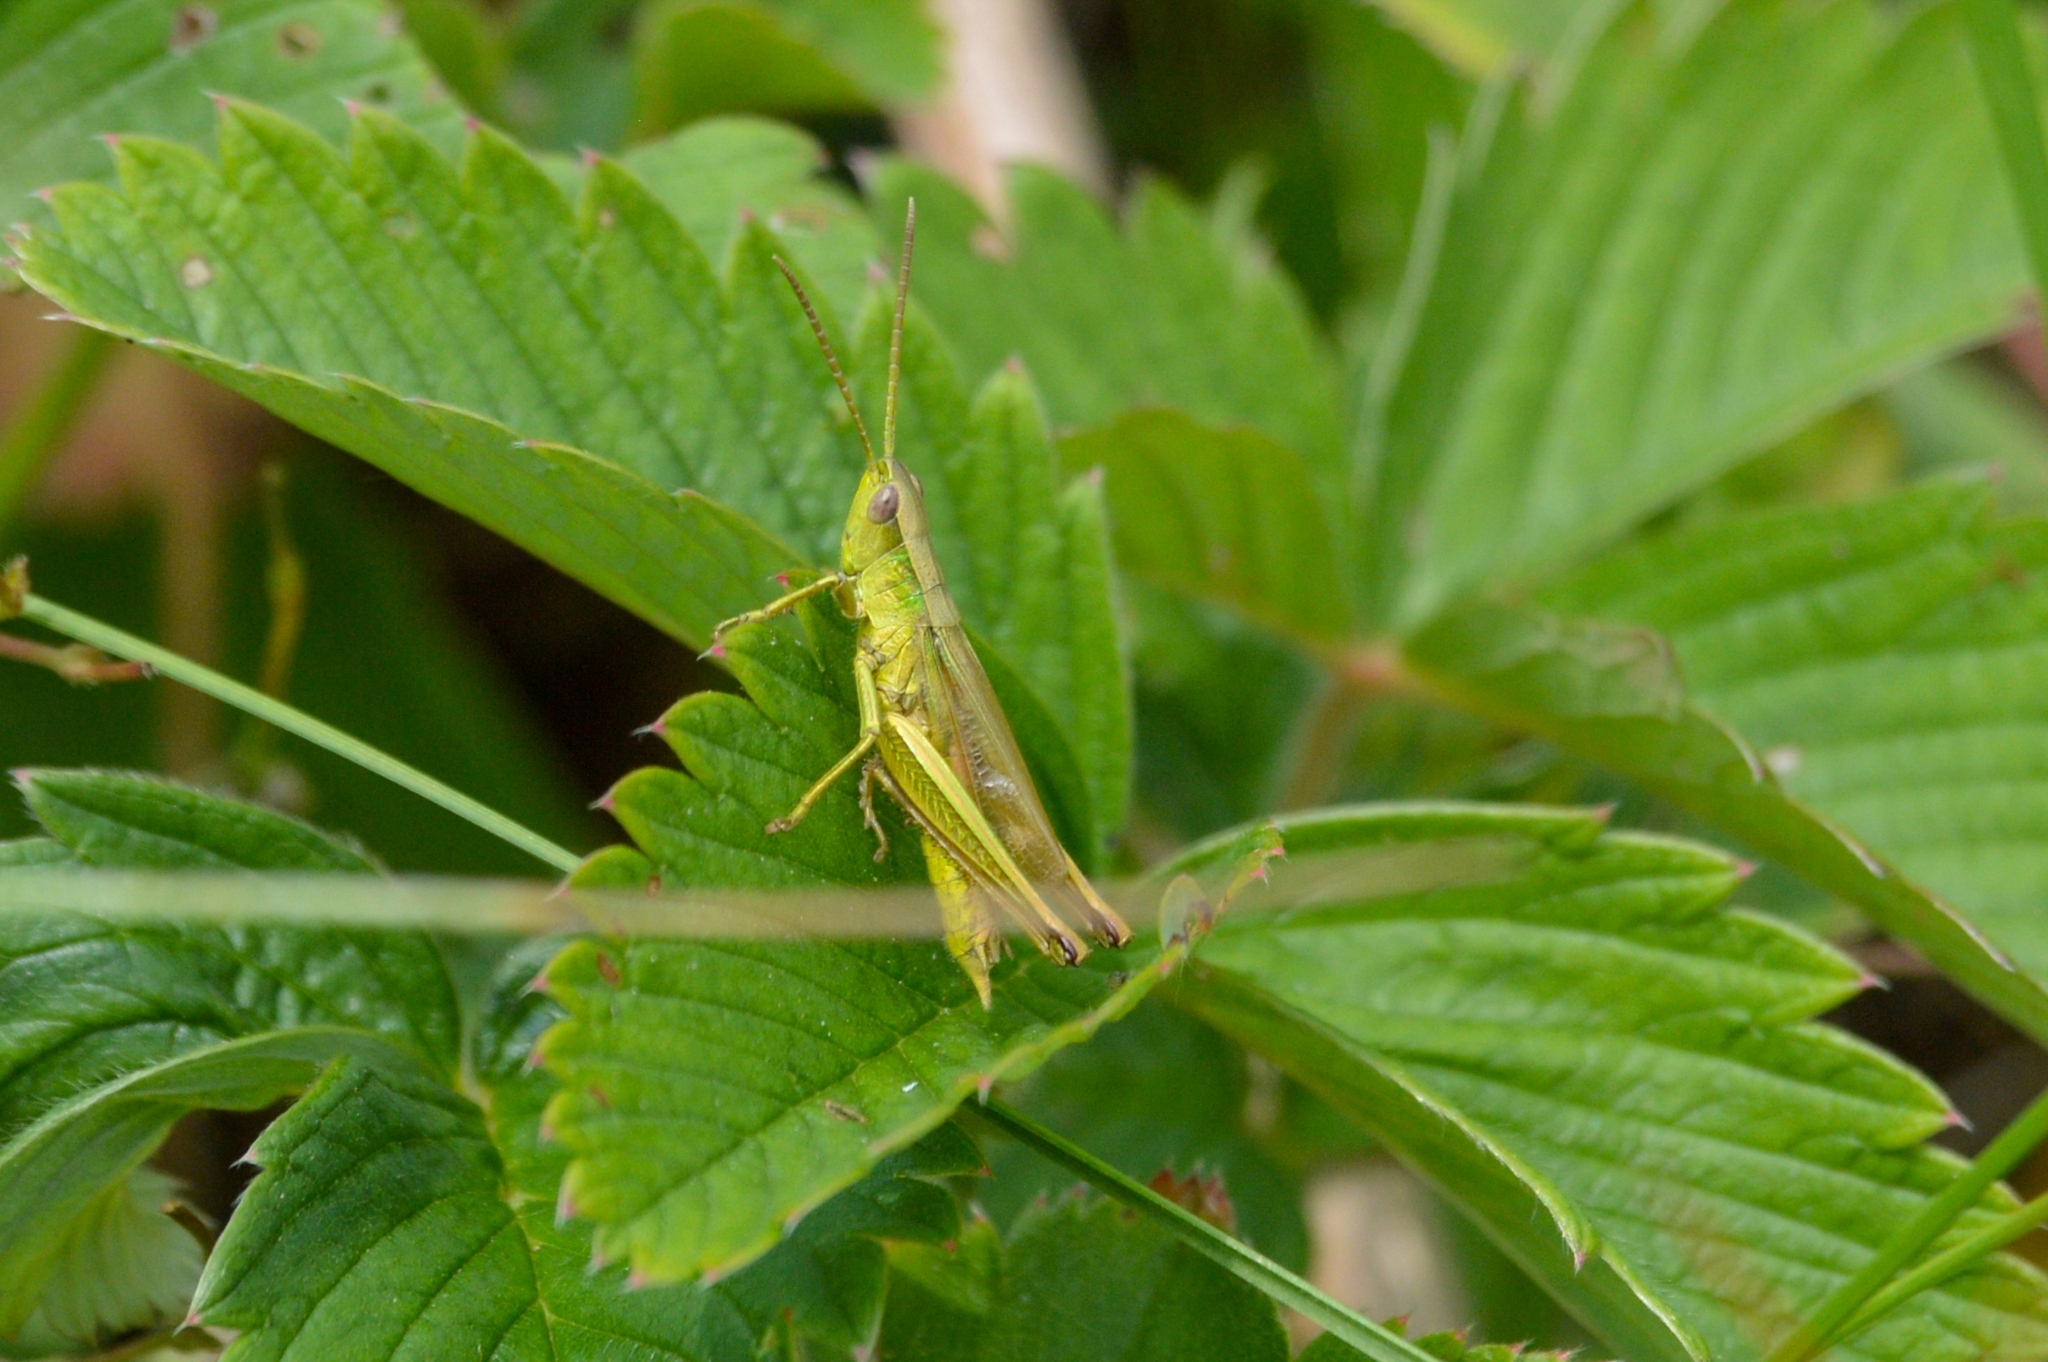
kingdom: Animalia
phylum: Arthropoda
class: Insecta
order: Orthoptera
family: Acrididae
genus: Chrysochraon
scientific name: Chrysochraon dispar
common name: Large gold grasshopper
